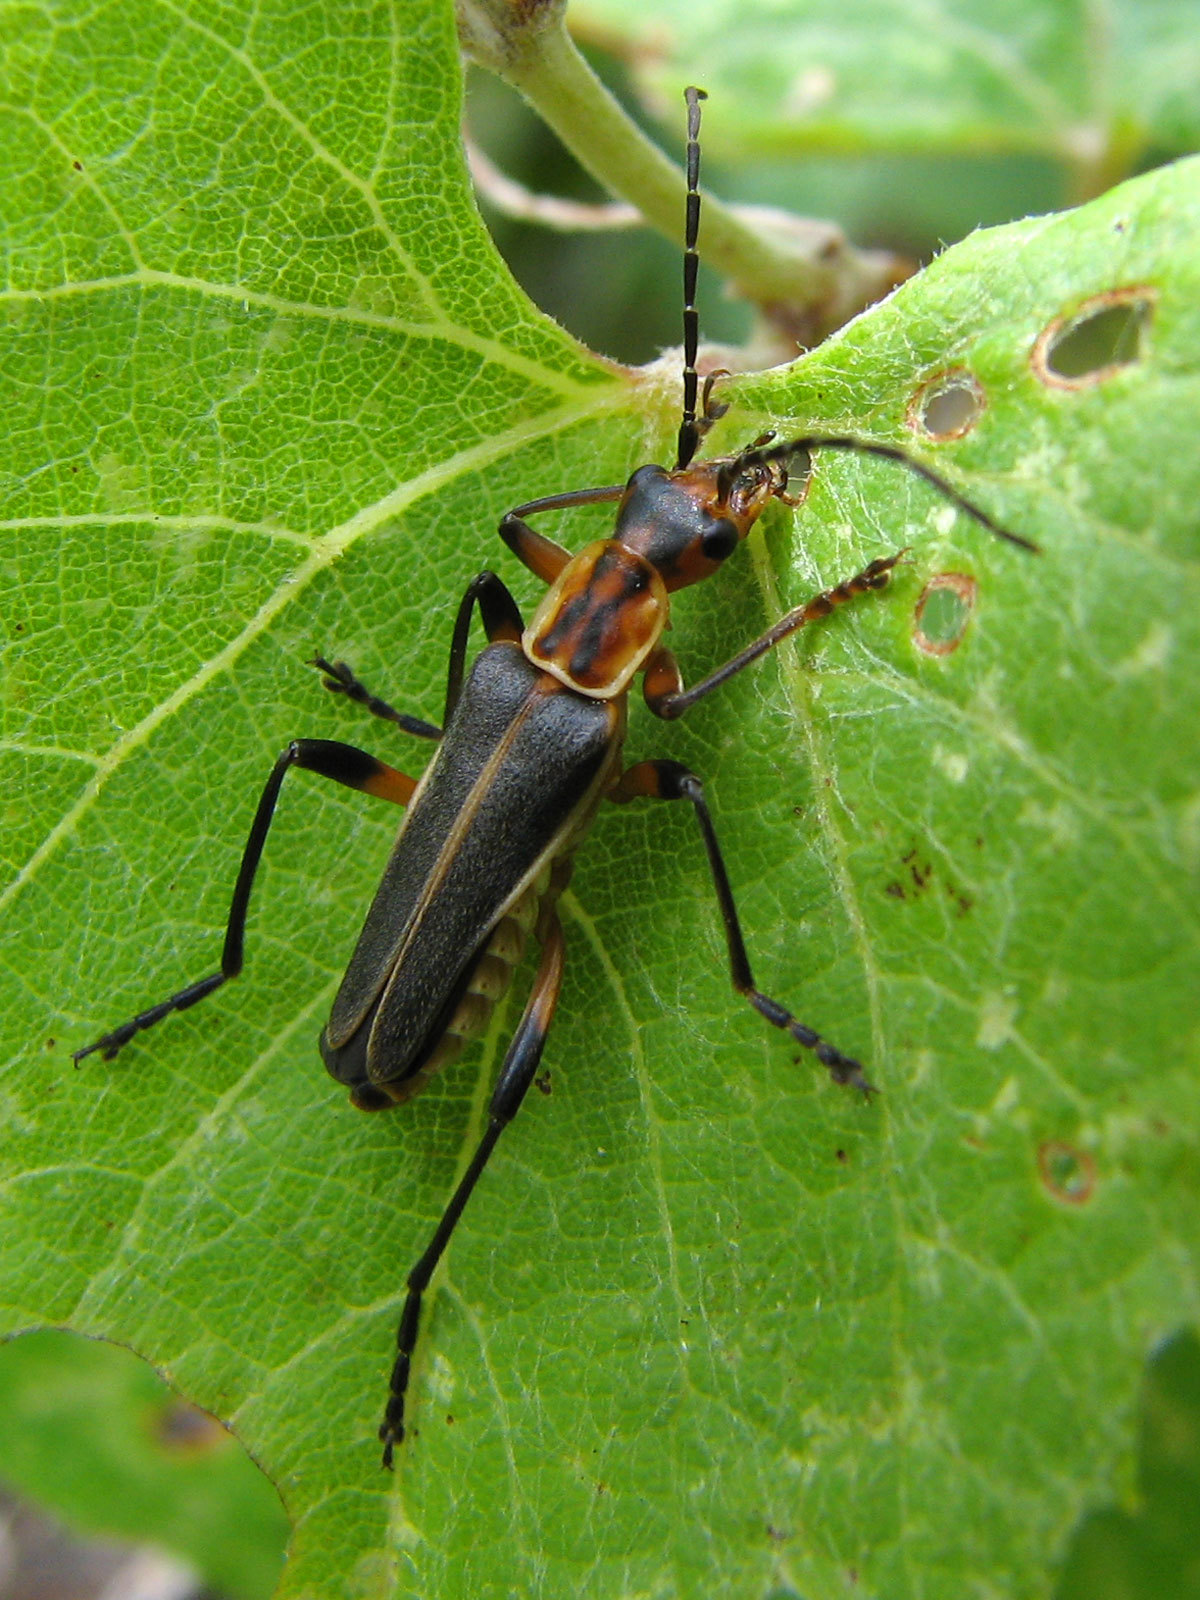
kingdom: Animalia
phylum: Arthropoda
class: Insecta
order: Coleoptera
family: Cantharidae
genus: Chauliognathus
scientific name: Chauliognathus obscurus
